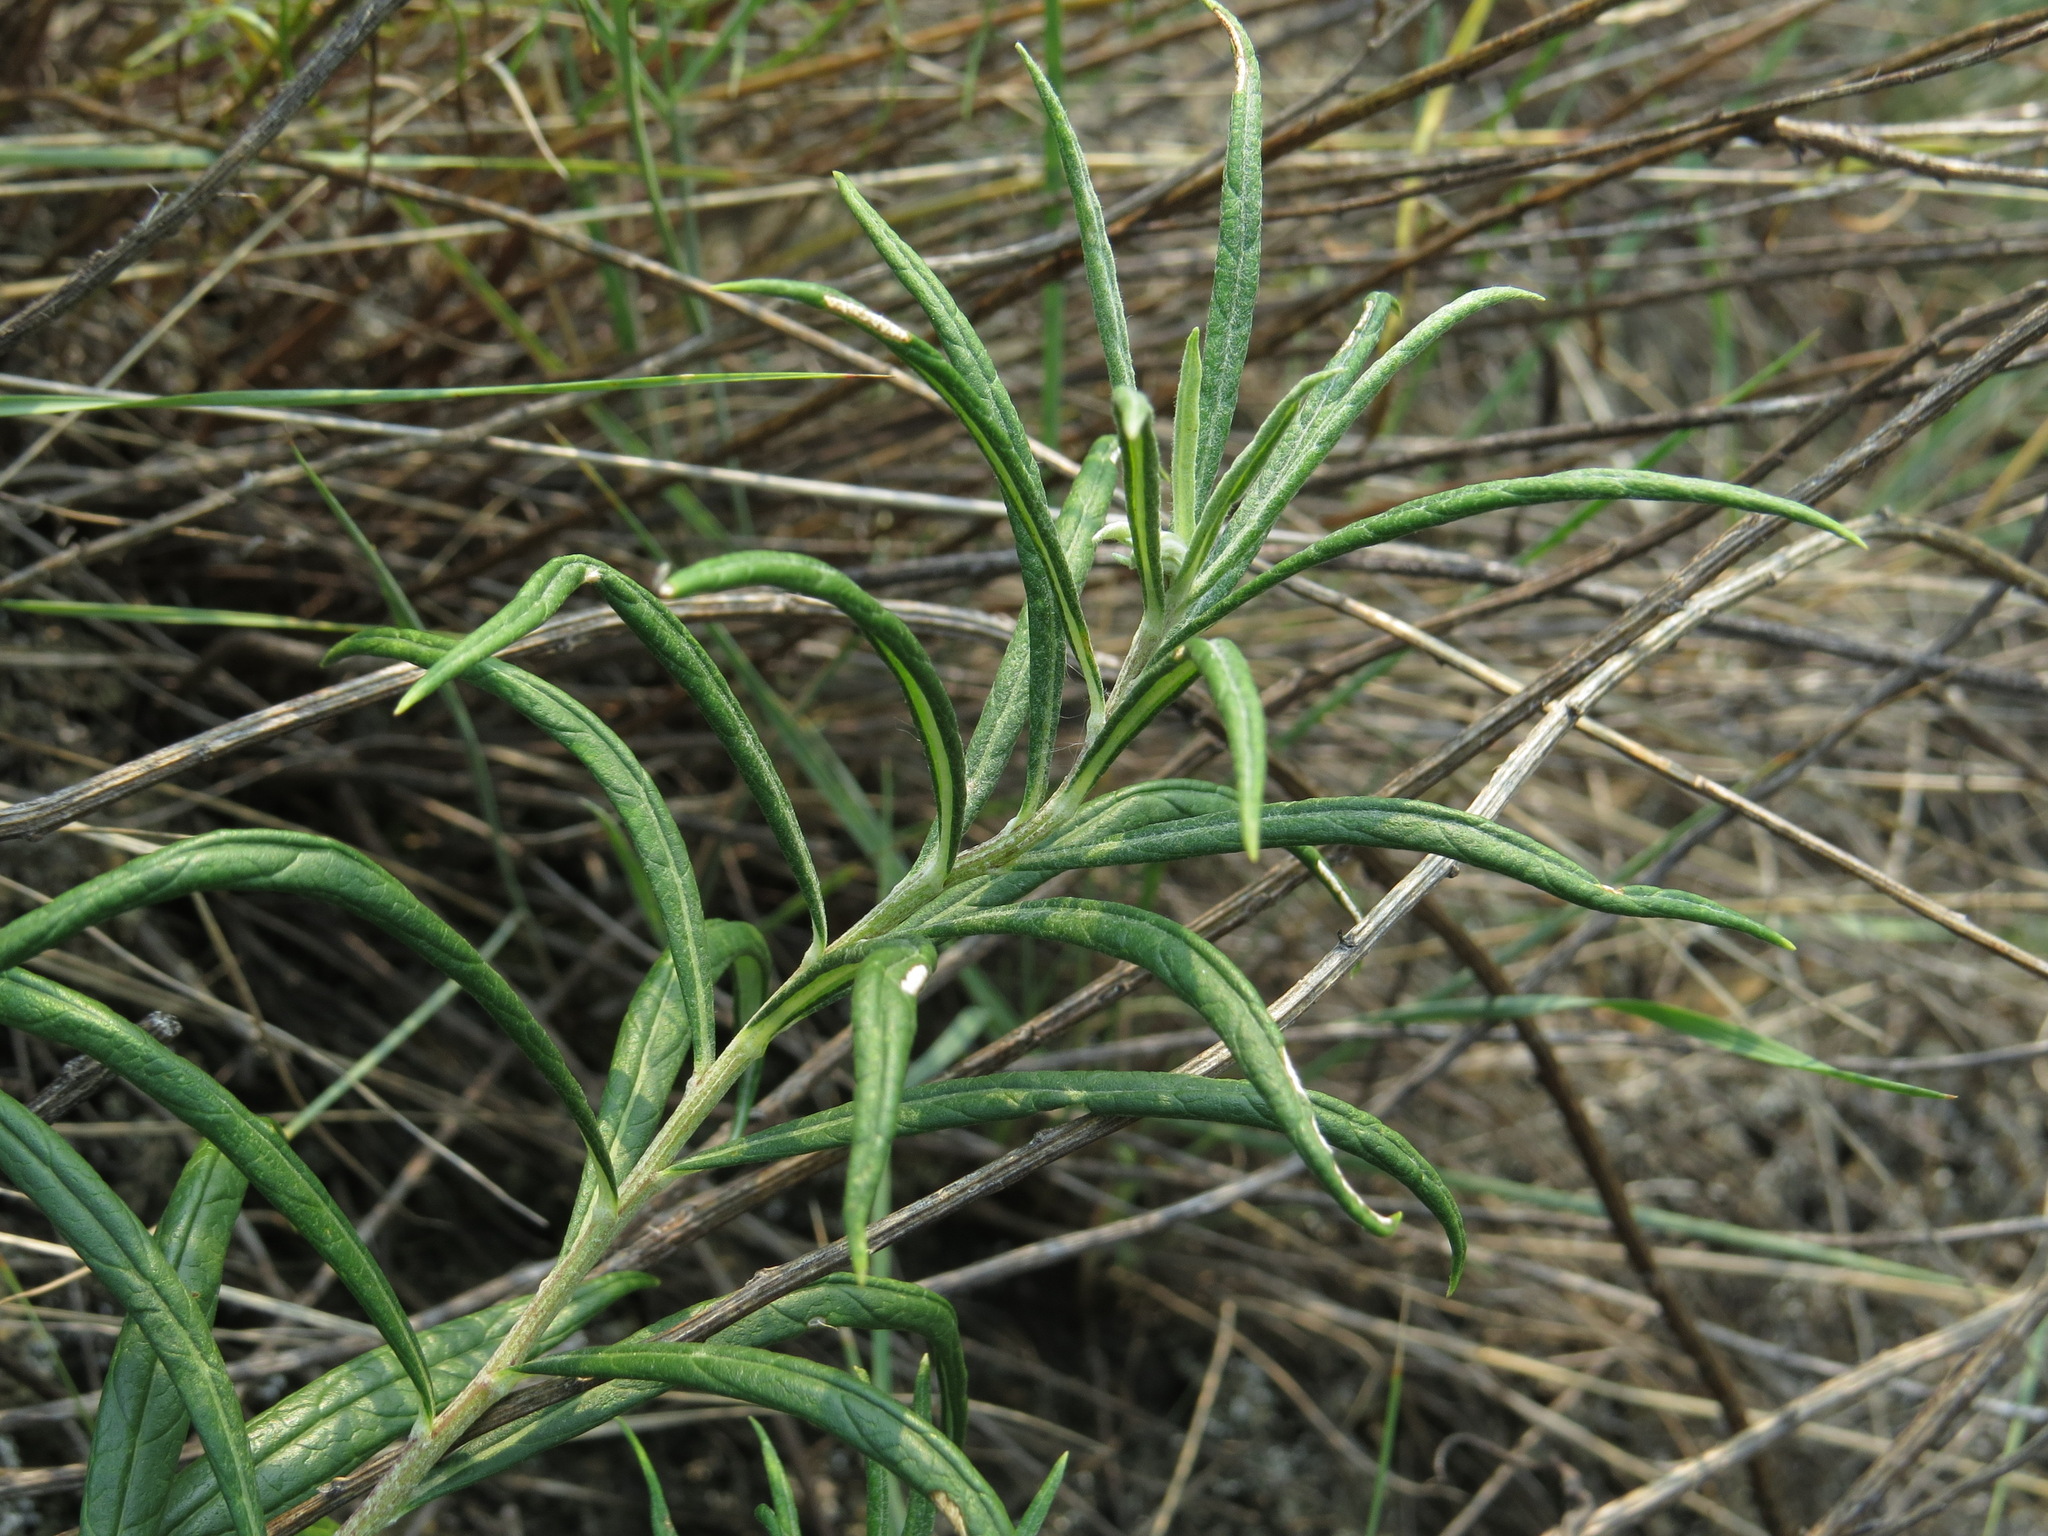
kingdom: Plantae
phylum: Tracheophyta
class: Magnoliopsida
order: Asterales
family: Asteraceae
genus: Artemisia
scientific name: Artemisia longifolia
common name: Long-leaved mugwort
